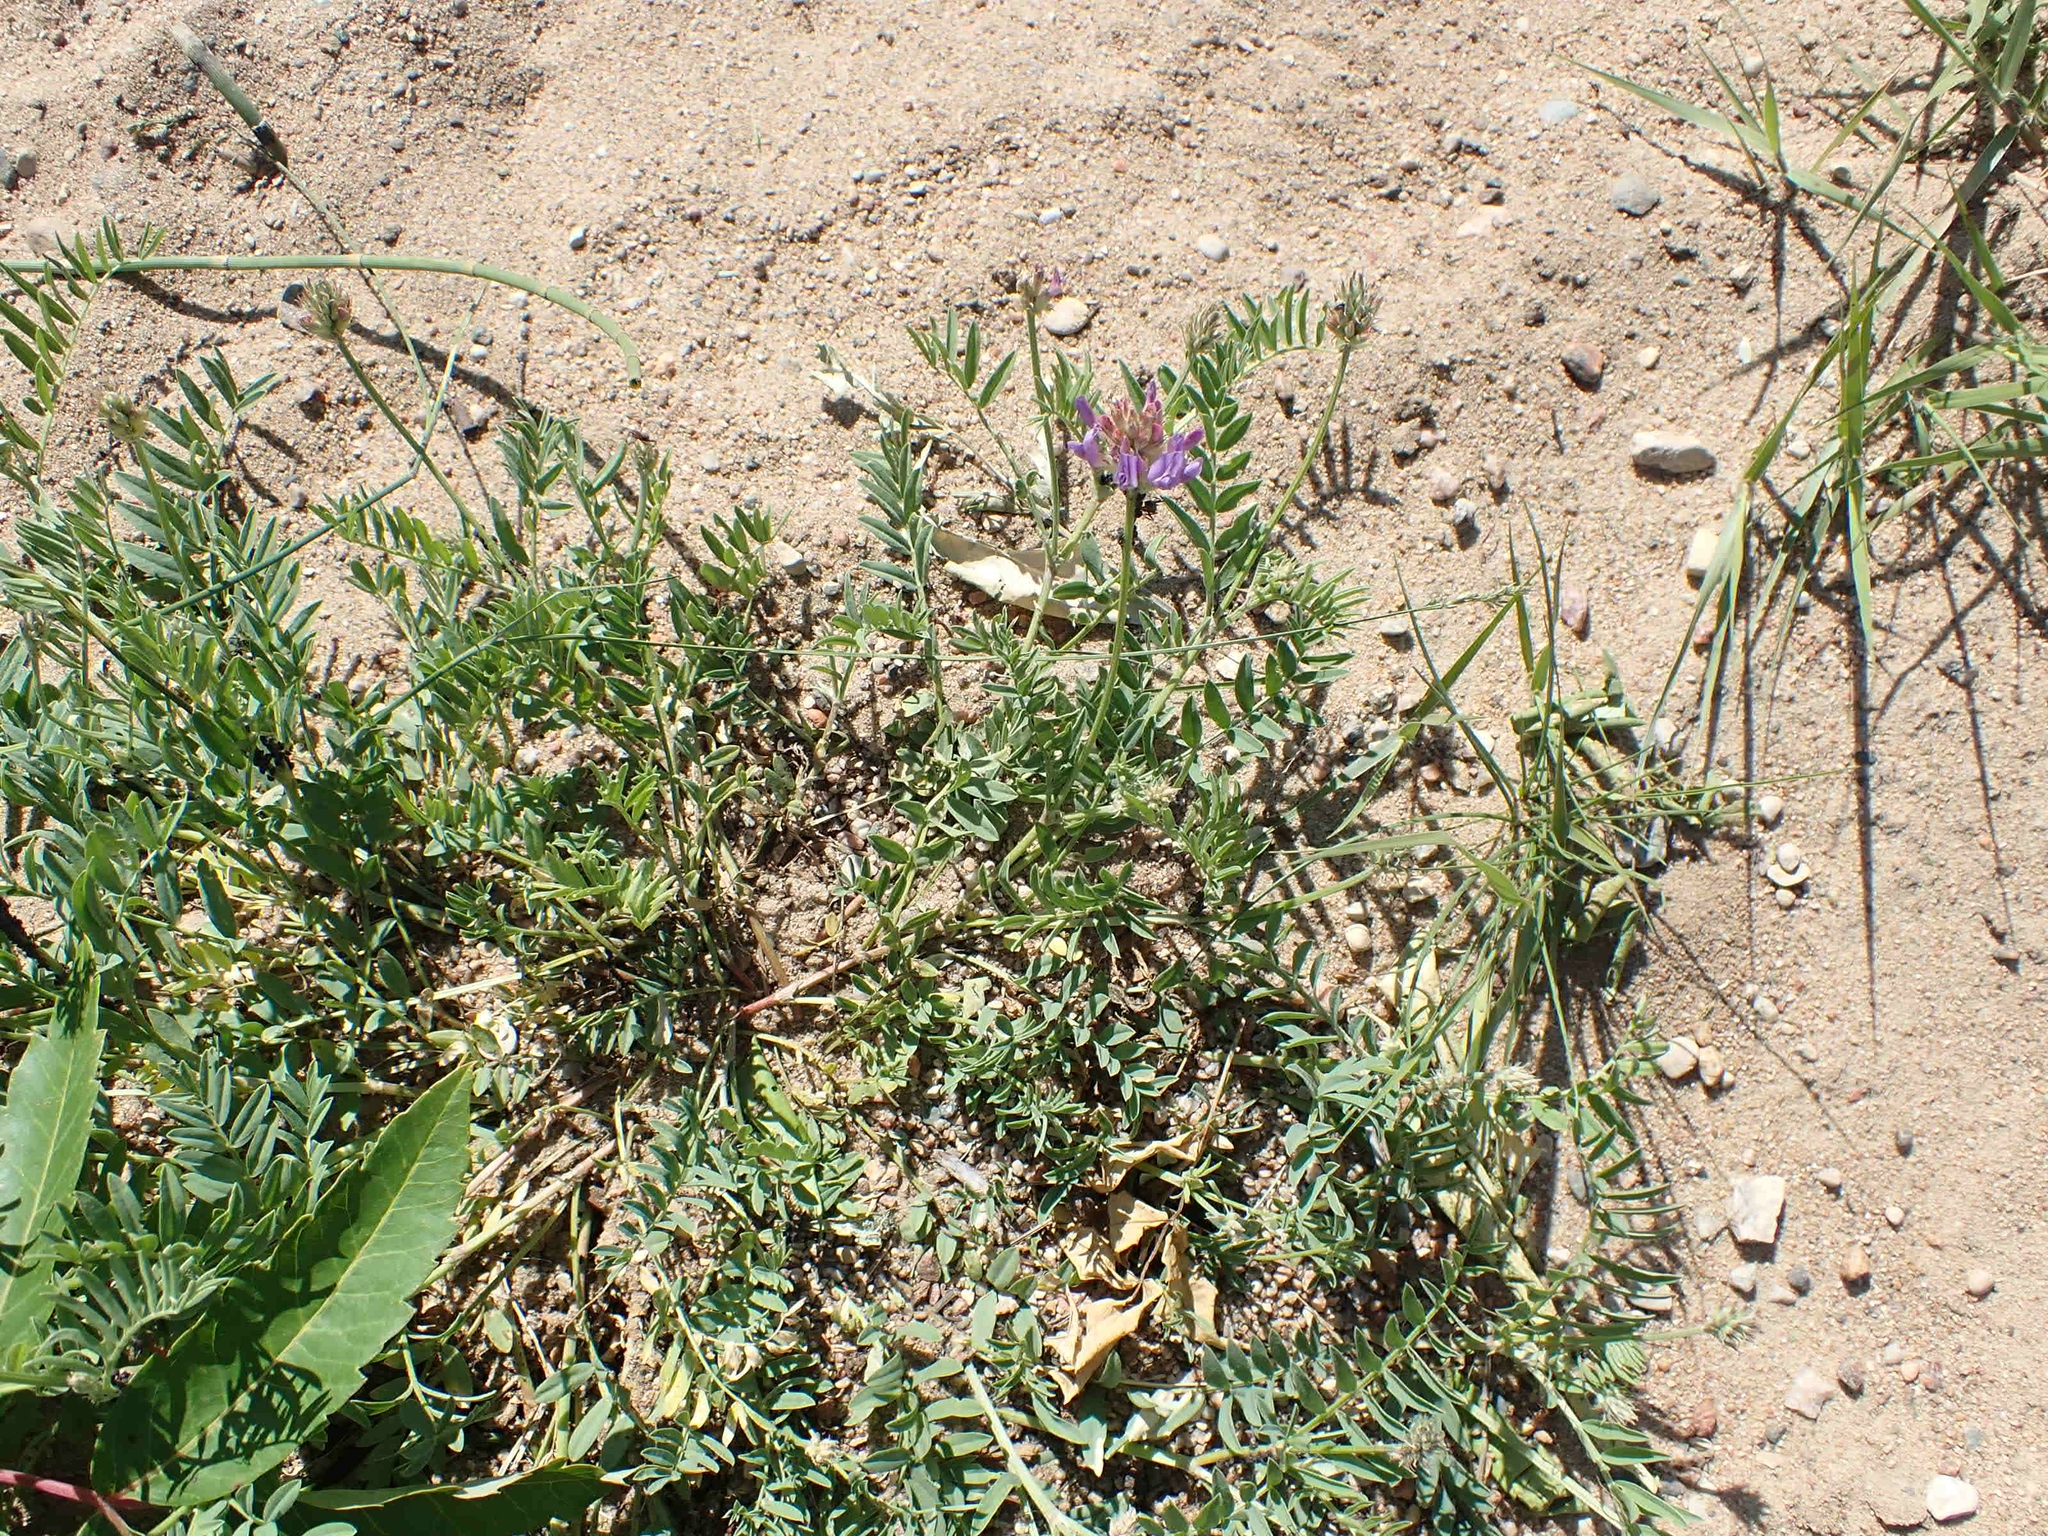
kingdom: Plantae
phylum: Tracheophyta
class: Magnoliopsida
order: Fabales
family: Fabaceae
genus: Astragalus
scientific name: Astragalus laxmannii
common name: Laxmann's milk-vetch
